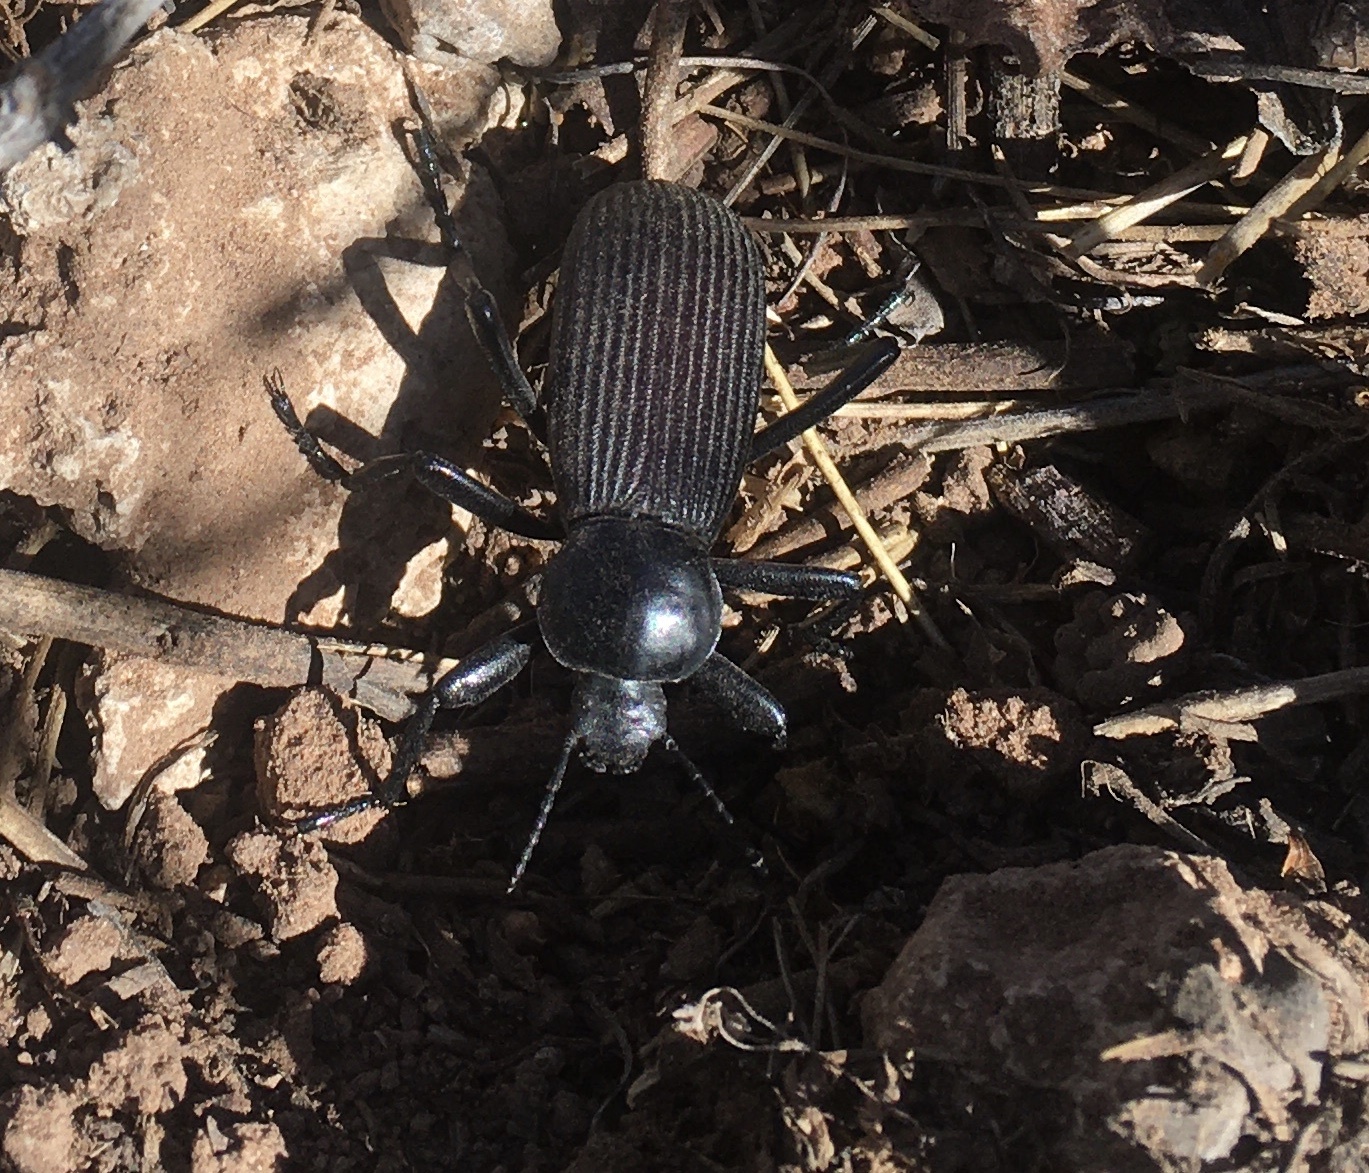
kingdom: Animalia
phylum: Arthropoda
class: Insecta
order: Coleoptera
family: Tenebrionidae
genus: Eleodes
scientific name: Eleodes obscura
